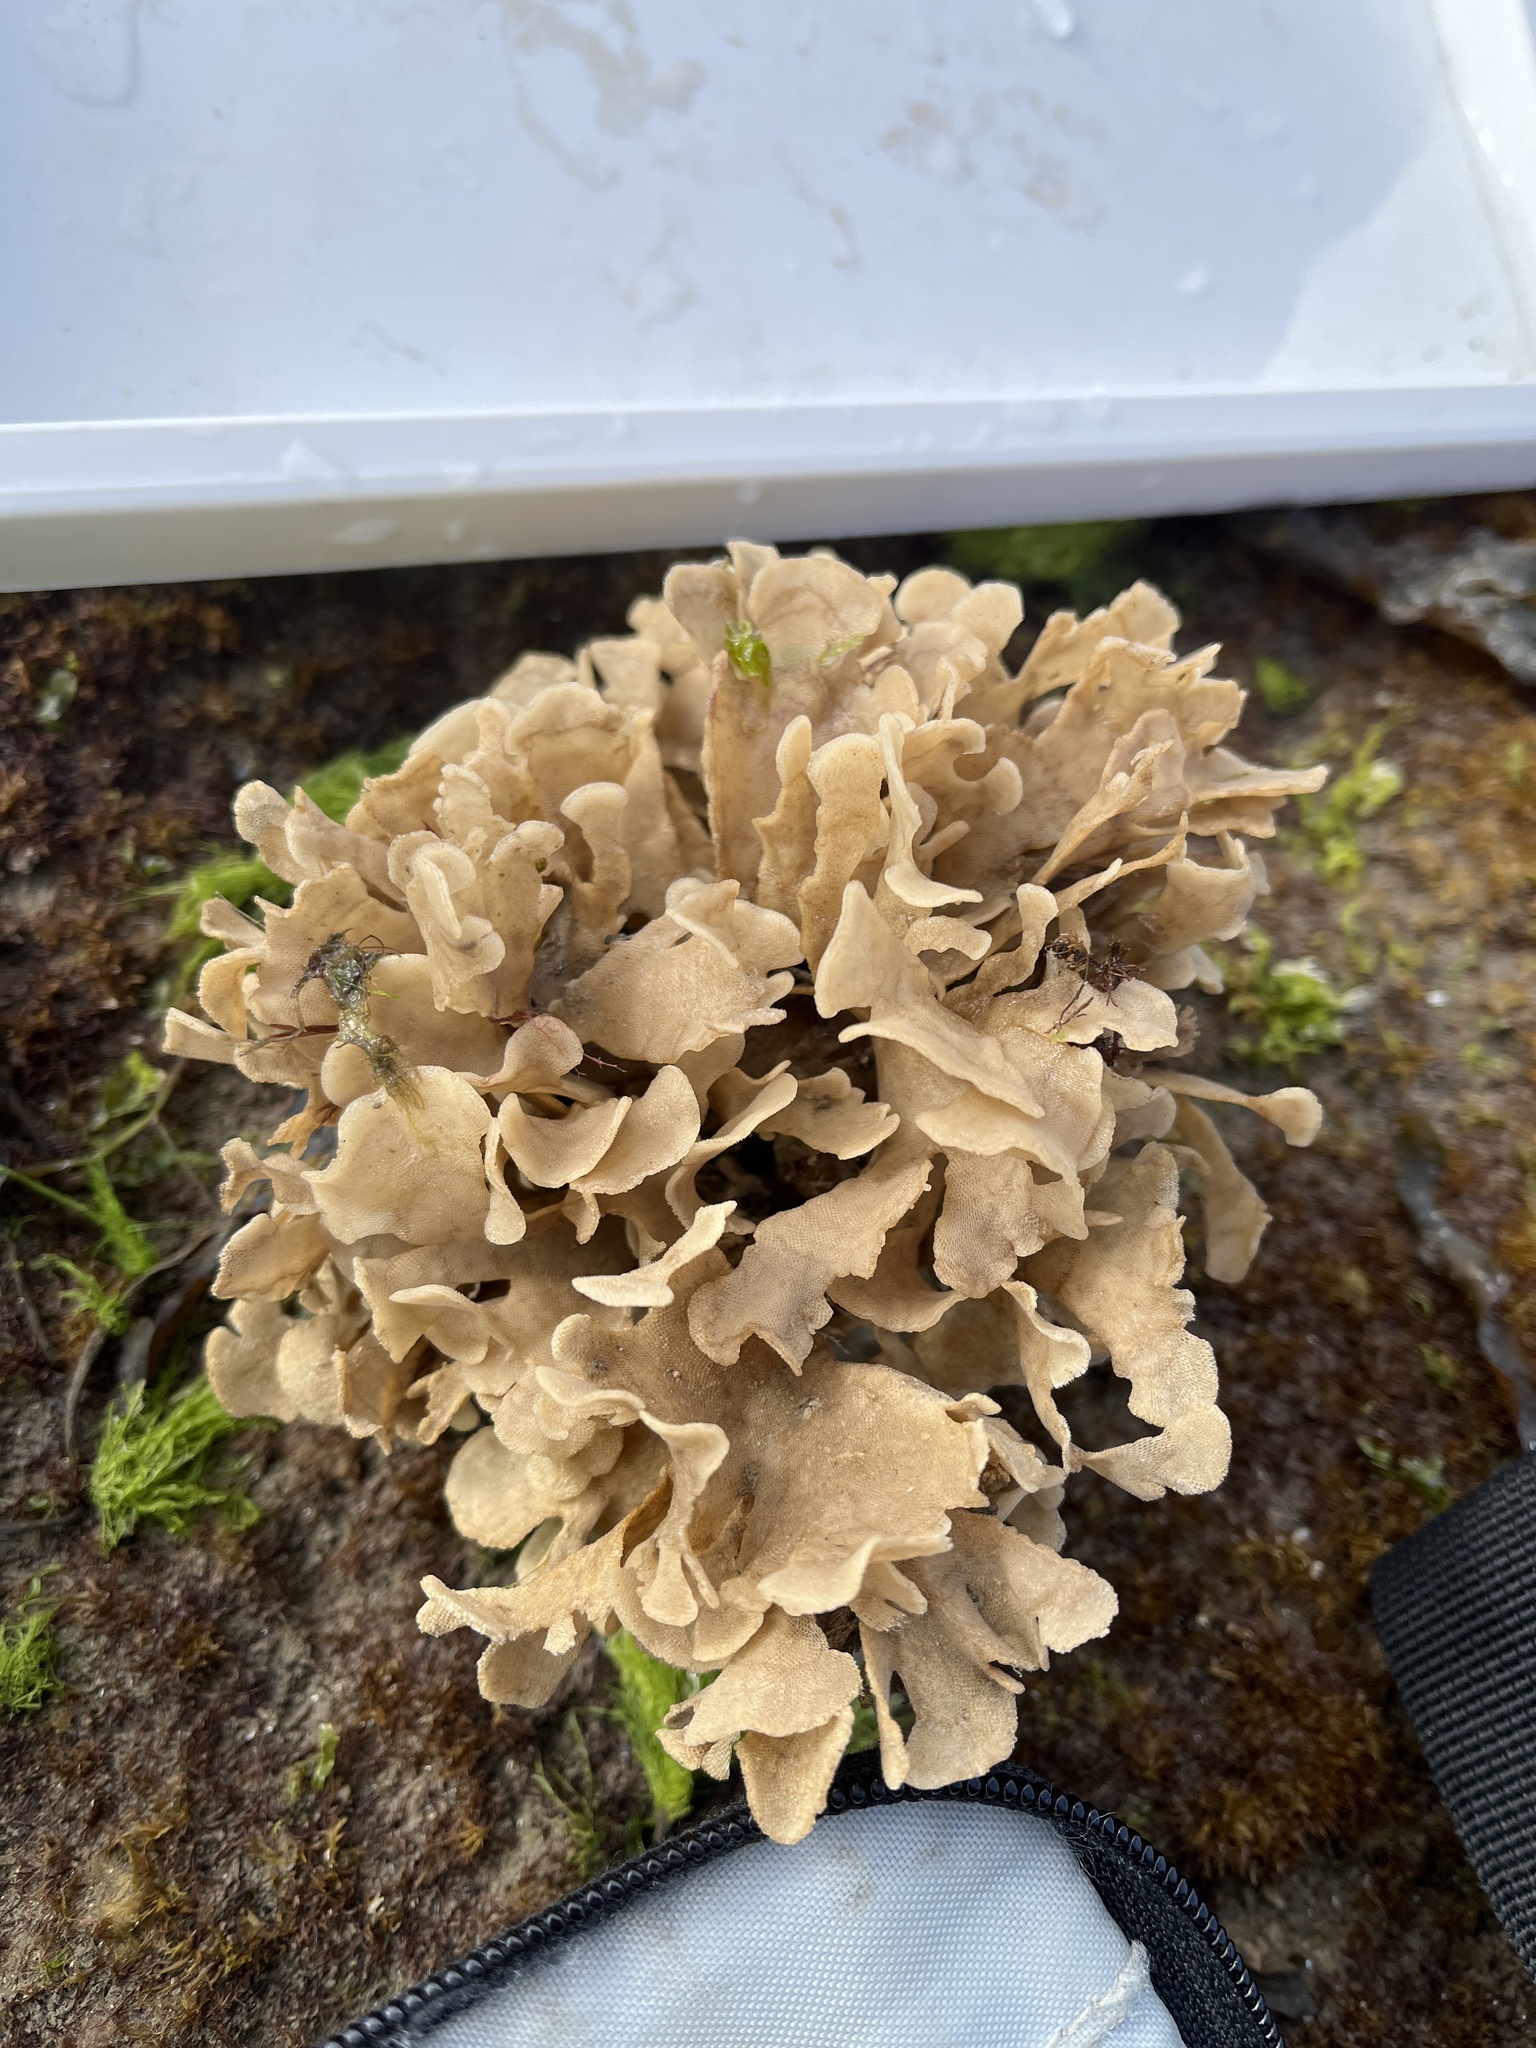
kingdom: Animalia
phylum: Bryozoa
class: Gymnolaemata
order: Cheilostomatida
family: Flustridae
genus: Flustra
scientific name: Flustra foliacea
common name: Hornwrack
